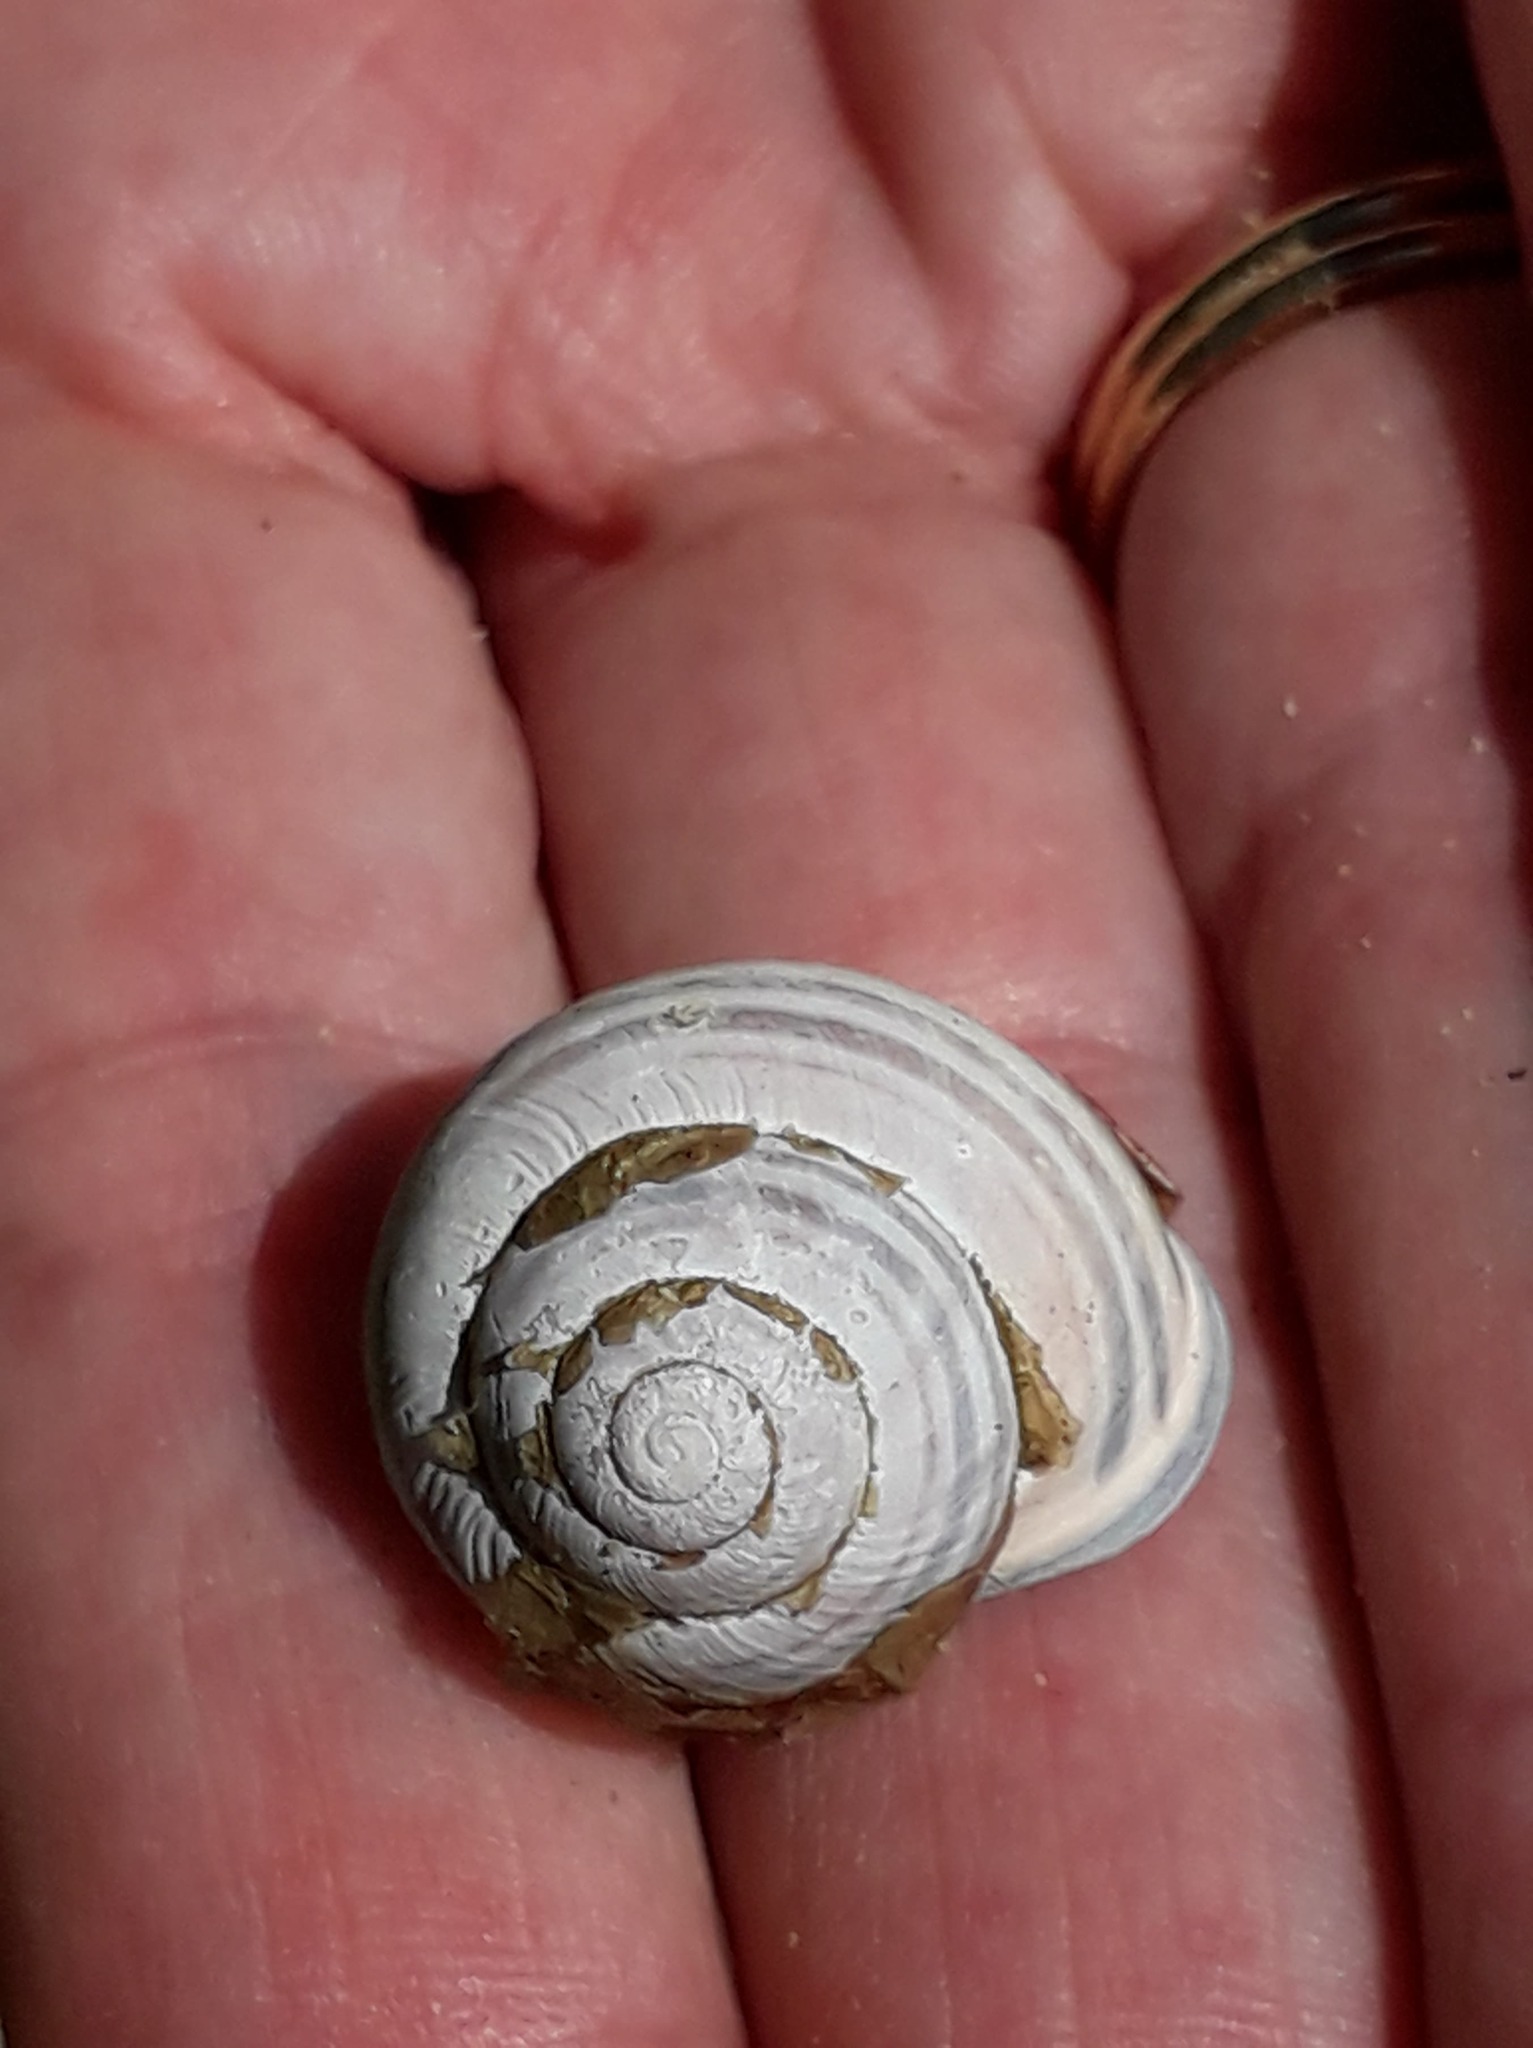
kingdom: Animalia
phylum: Mollusca
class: Gastropoda
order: Stylommatophora
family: Helicidae
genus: Cepaea
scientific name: Cepaea nemoralis
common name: Grovesnail
